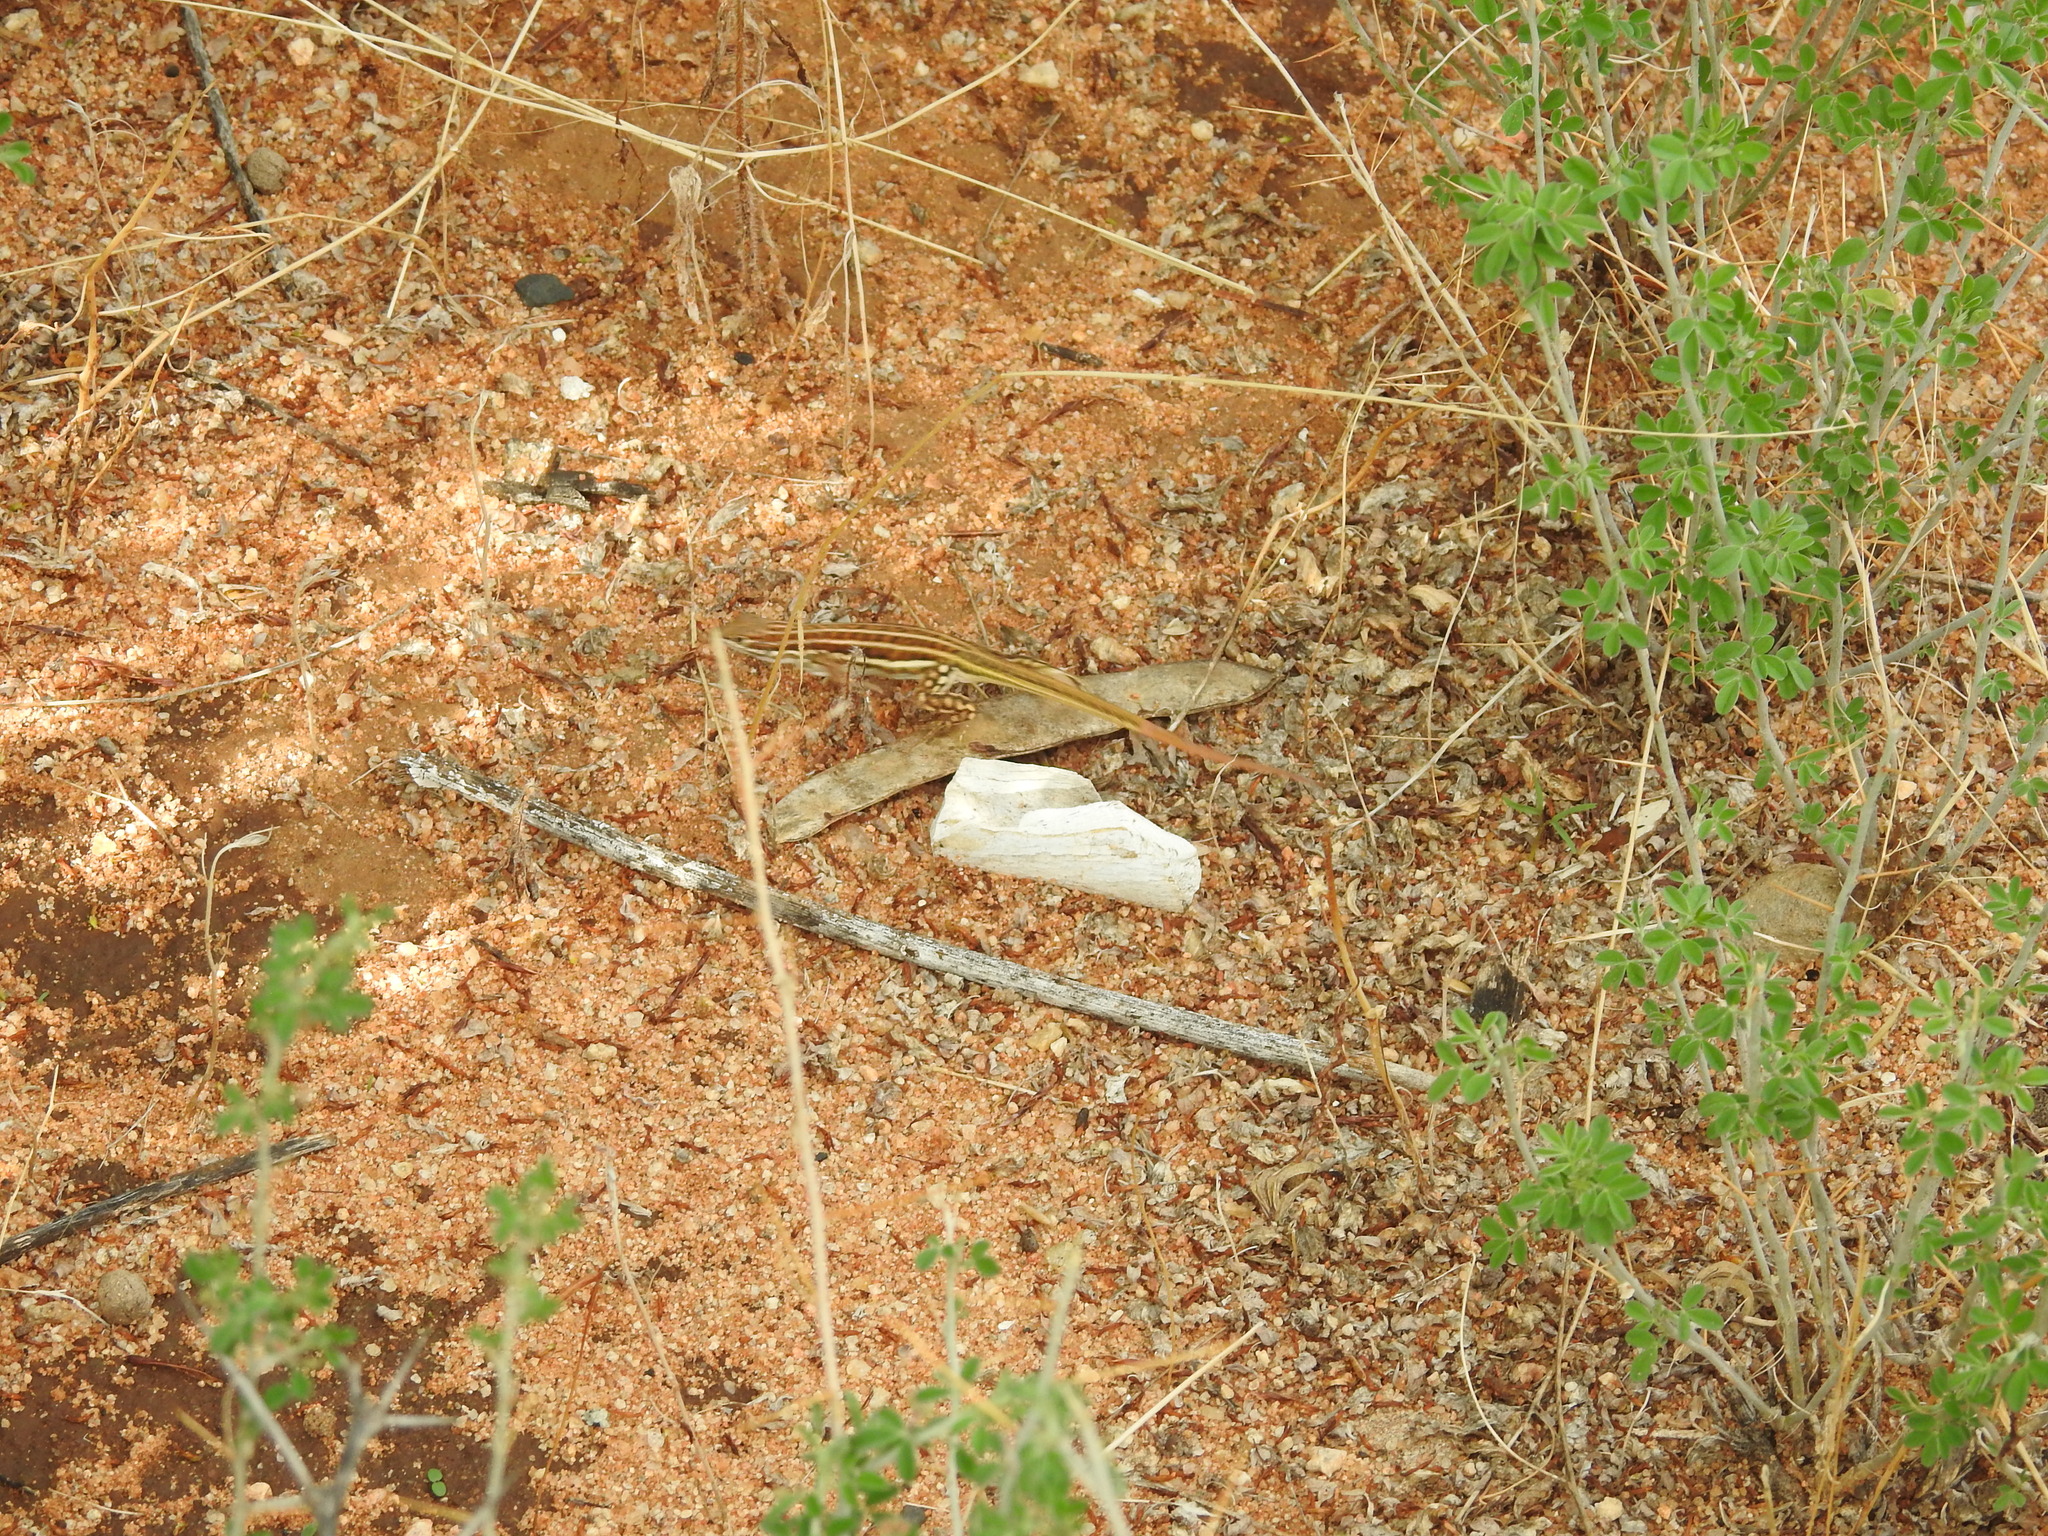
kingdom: Animalia
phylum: Chordata
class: Squamata
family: Lacertidae
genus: Heliobolus
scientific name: Heliobolus spekii
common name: Speke’s sand lizard
